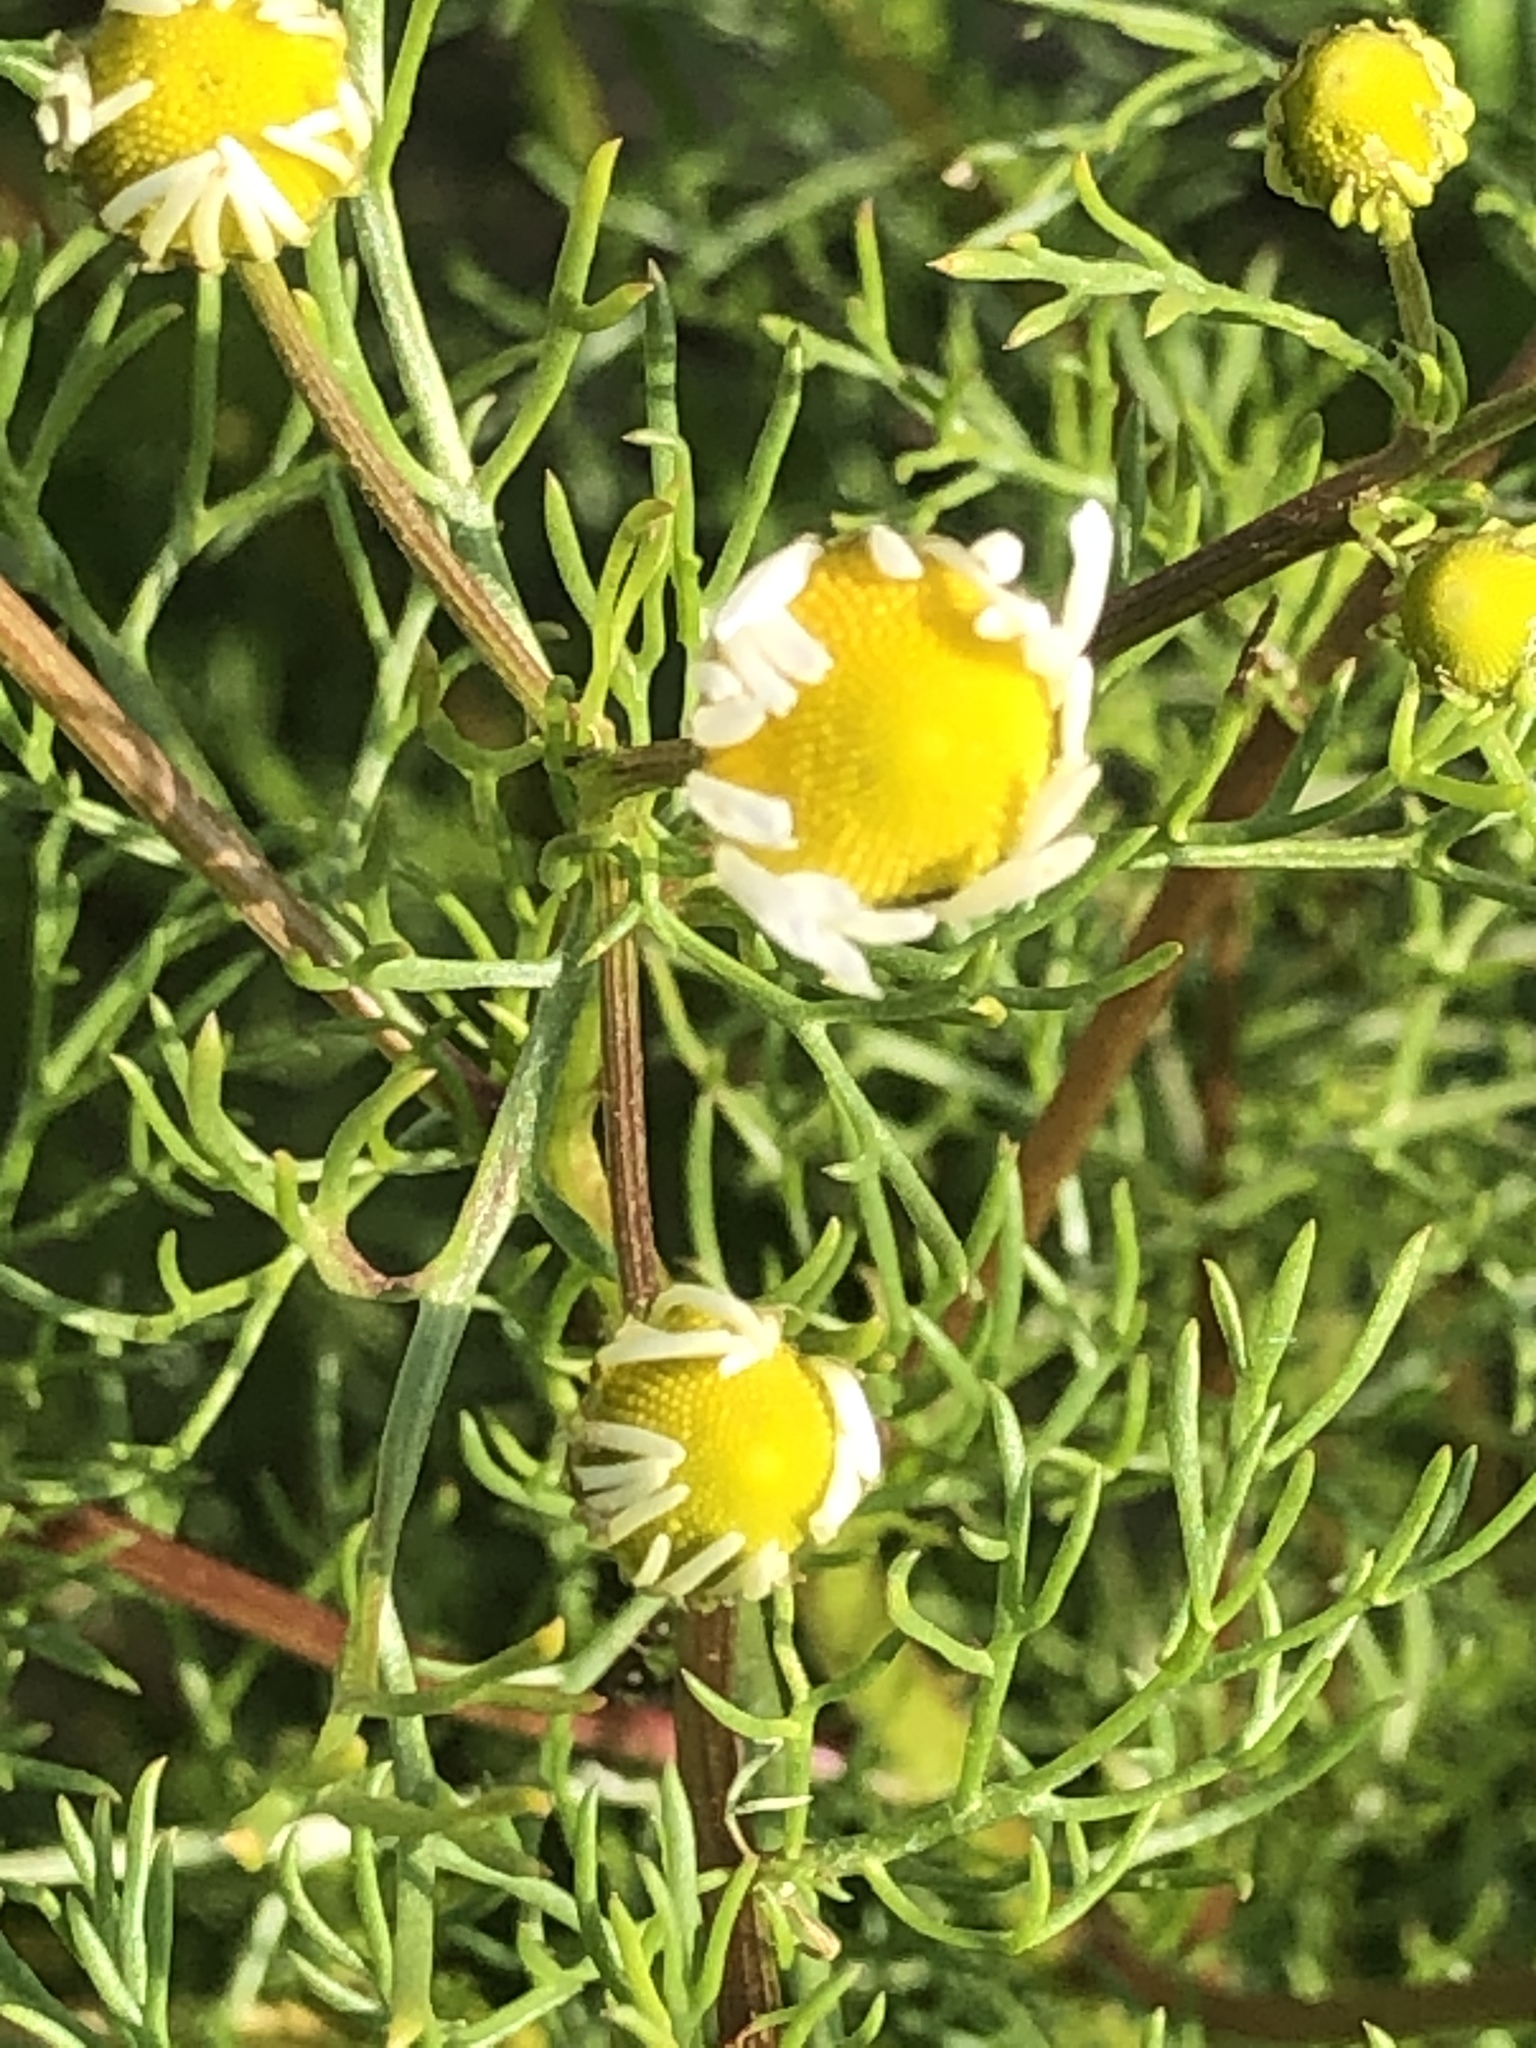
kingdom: Plantae
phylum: Tracheophyta
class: Magnoliopsida
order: Asterales
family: Asteraceae
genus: Matricaria
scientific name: Matricaria chamomilla
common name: Scented mayweed
